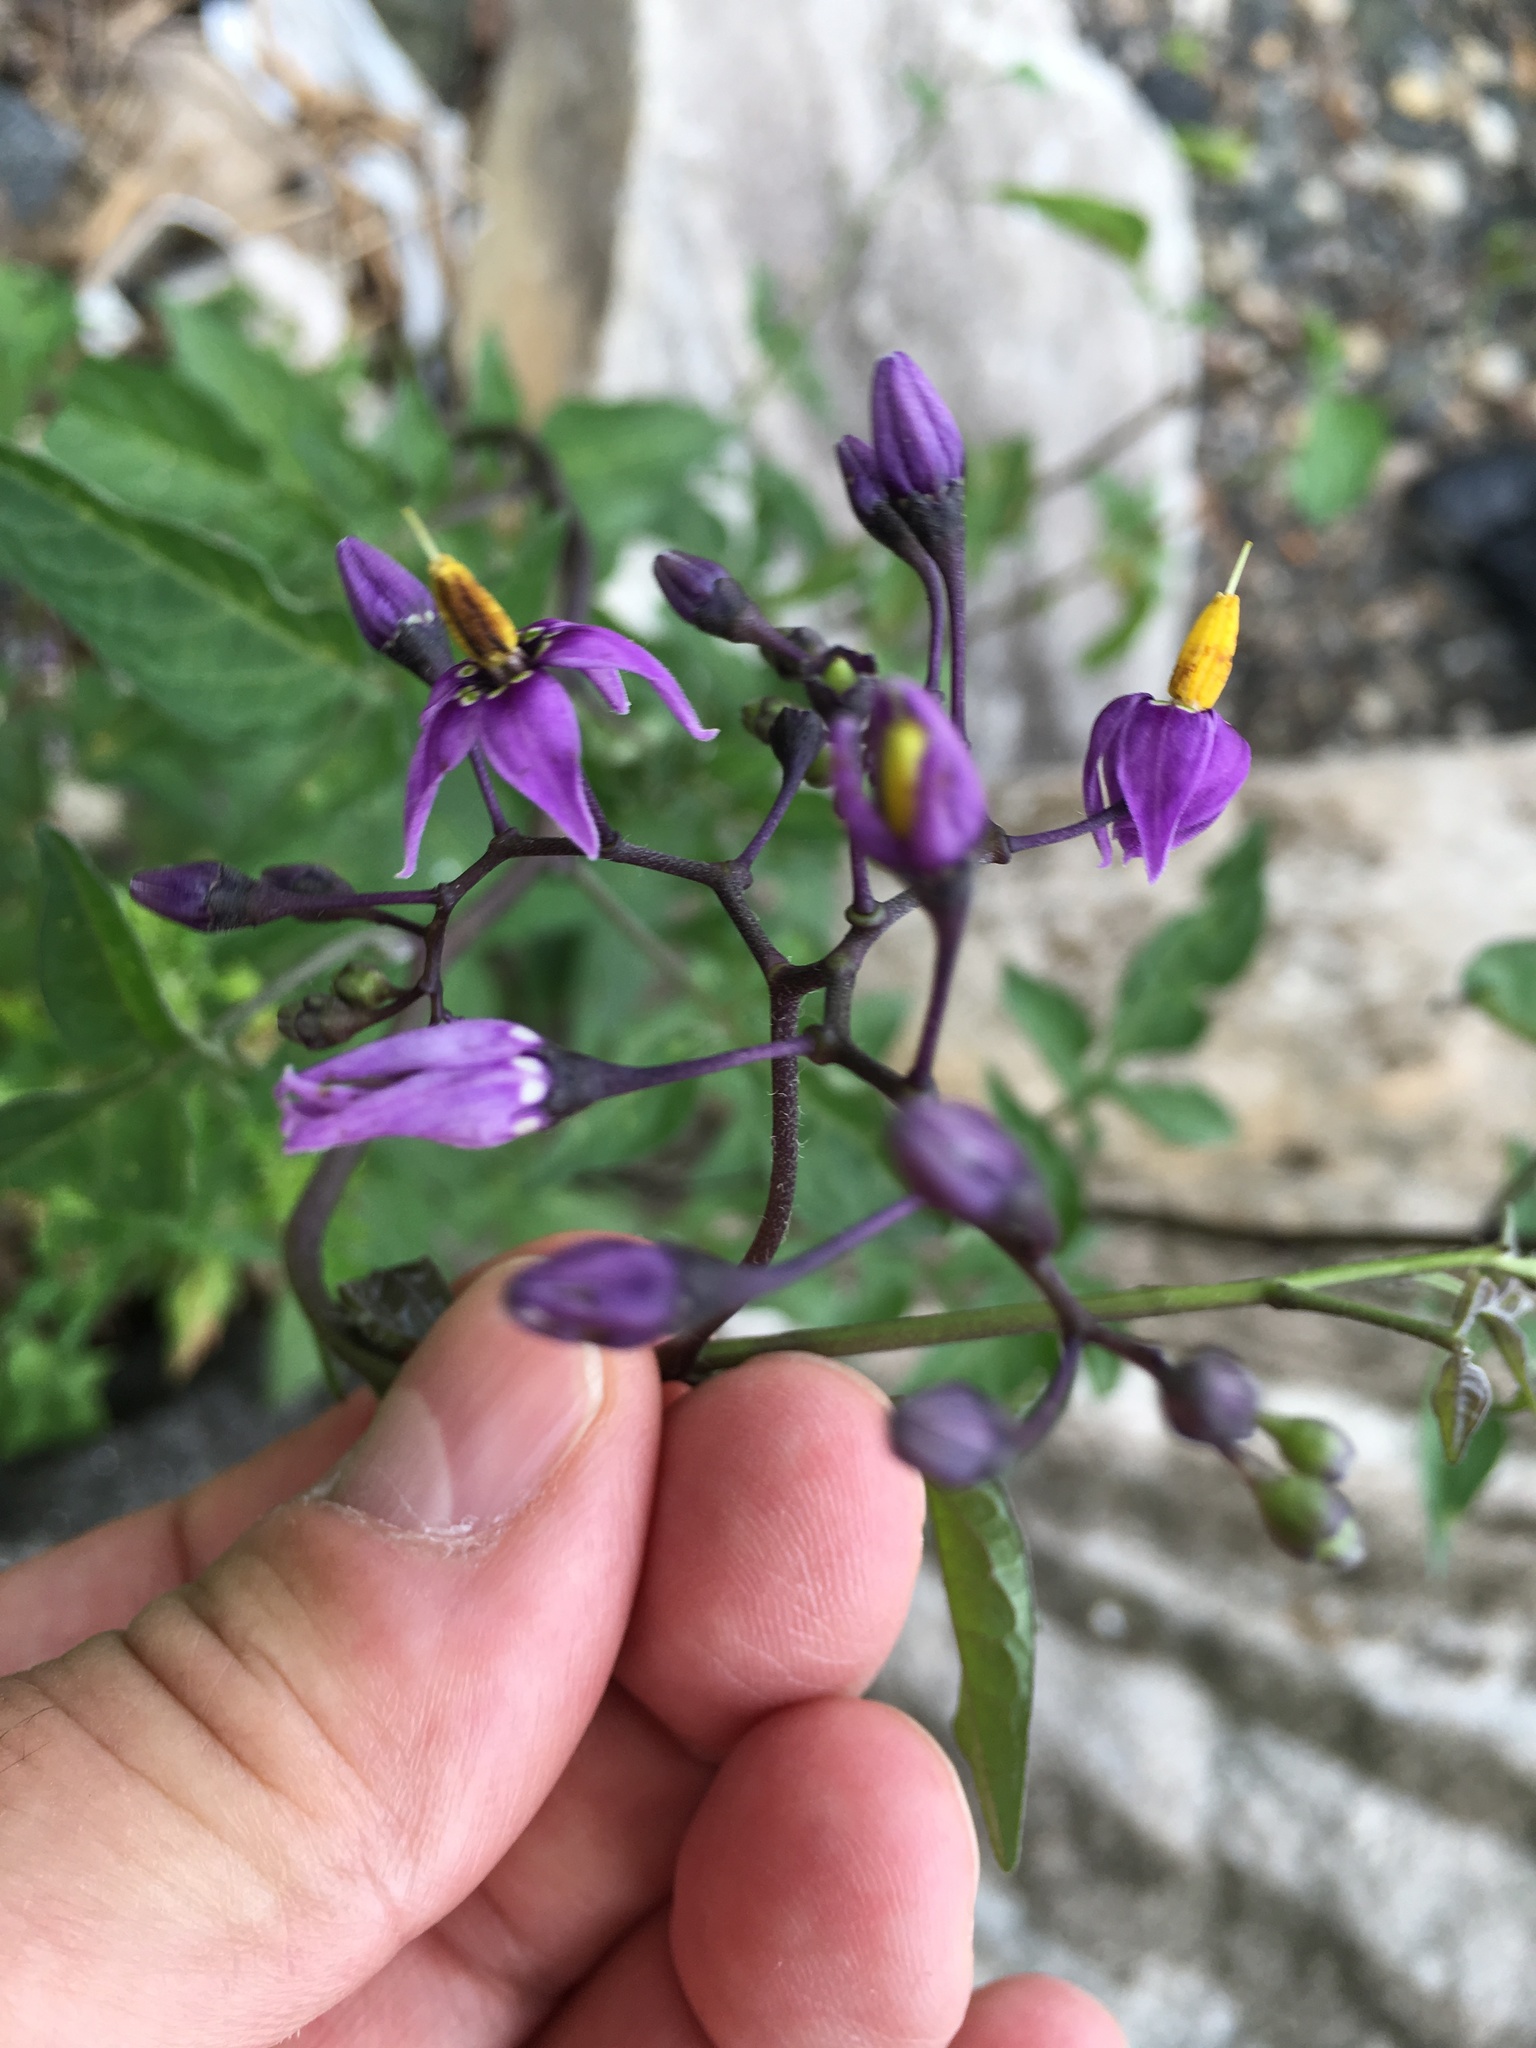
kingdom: Plantae
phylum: Tracheophyta
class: Magnoliopsida
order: Solanales
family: Solanaceae
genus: Solanum
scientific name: Solanum dulcamara
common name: Climbing nightshade
